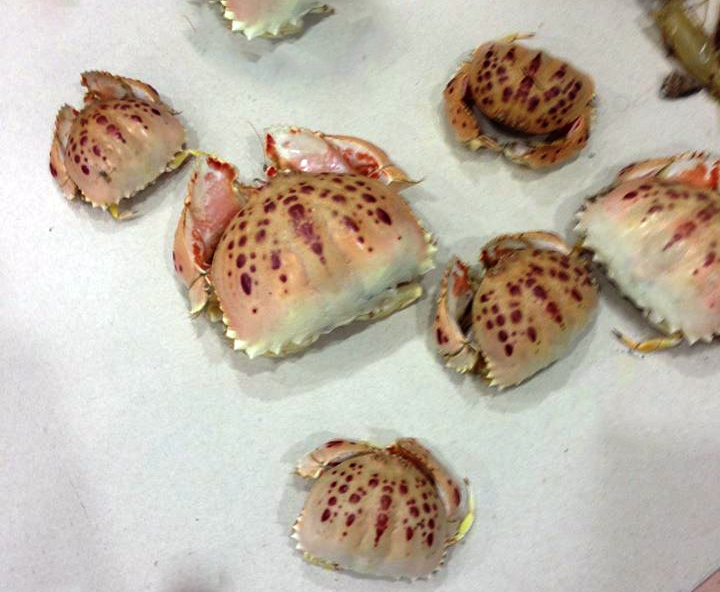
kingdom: Animalia
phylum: Arthropoda
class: Malacostraca
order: Decapoda
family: Calappidae
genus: Calappa
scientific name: Calappa granulata
